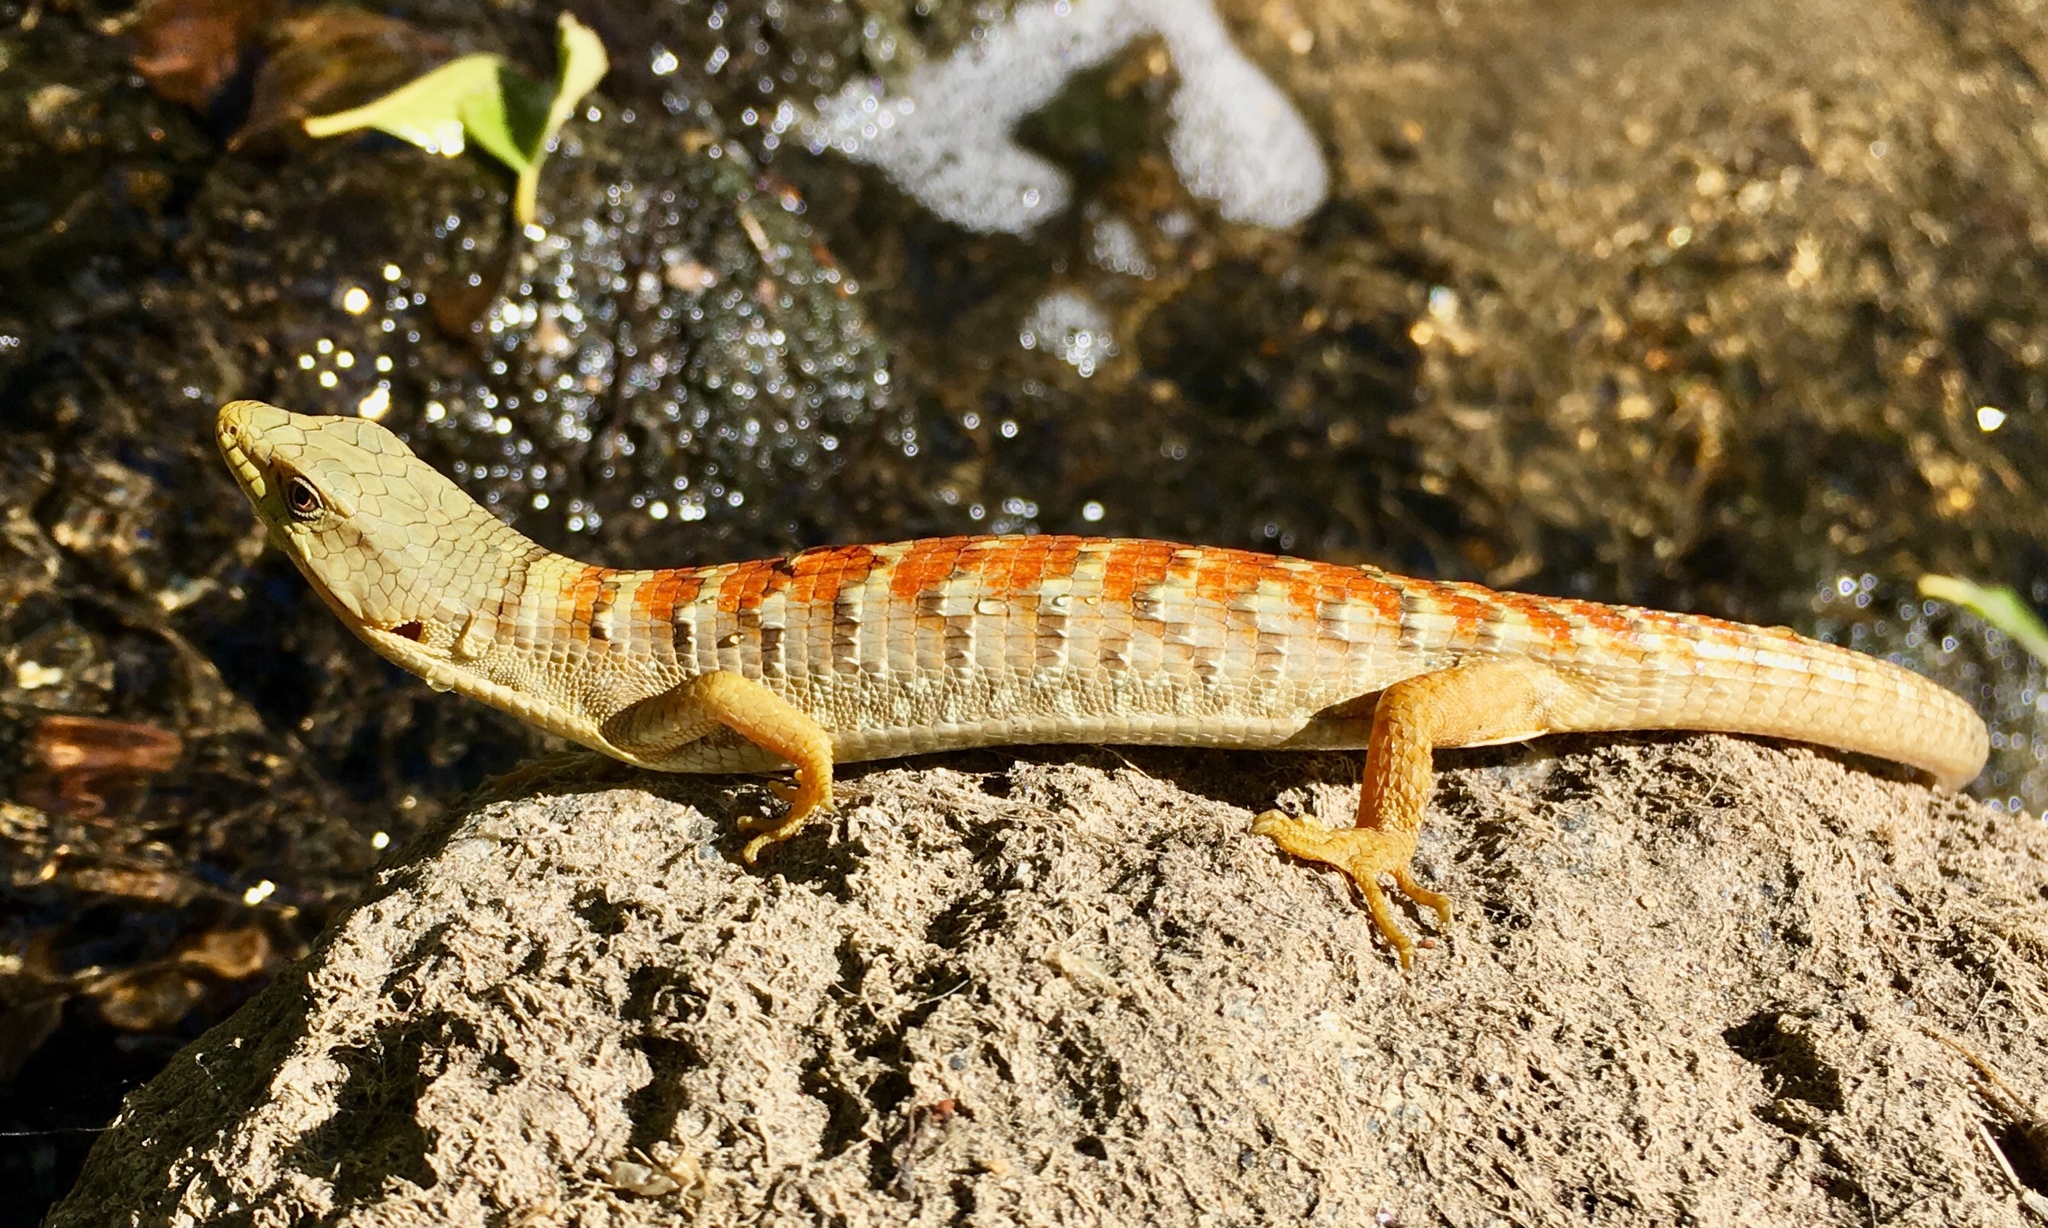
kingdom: Animalia
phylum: Chordata
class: Squamata
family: Anguidae
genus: Elgaria
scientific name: Elgaria multicarinata
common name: Southern alligator lizard
